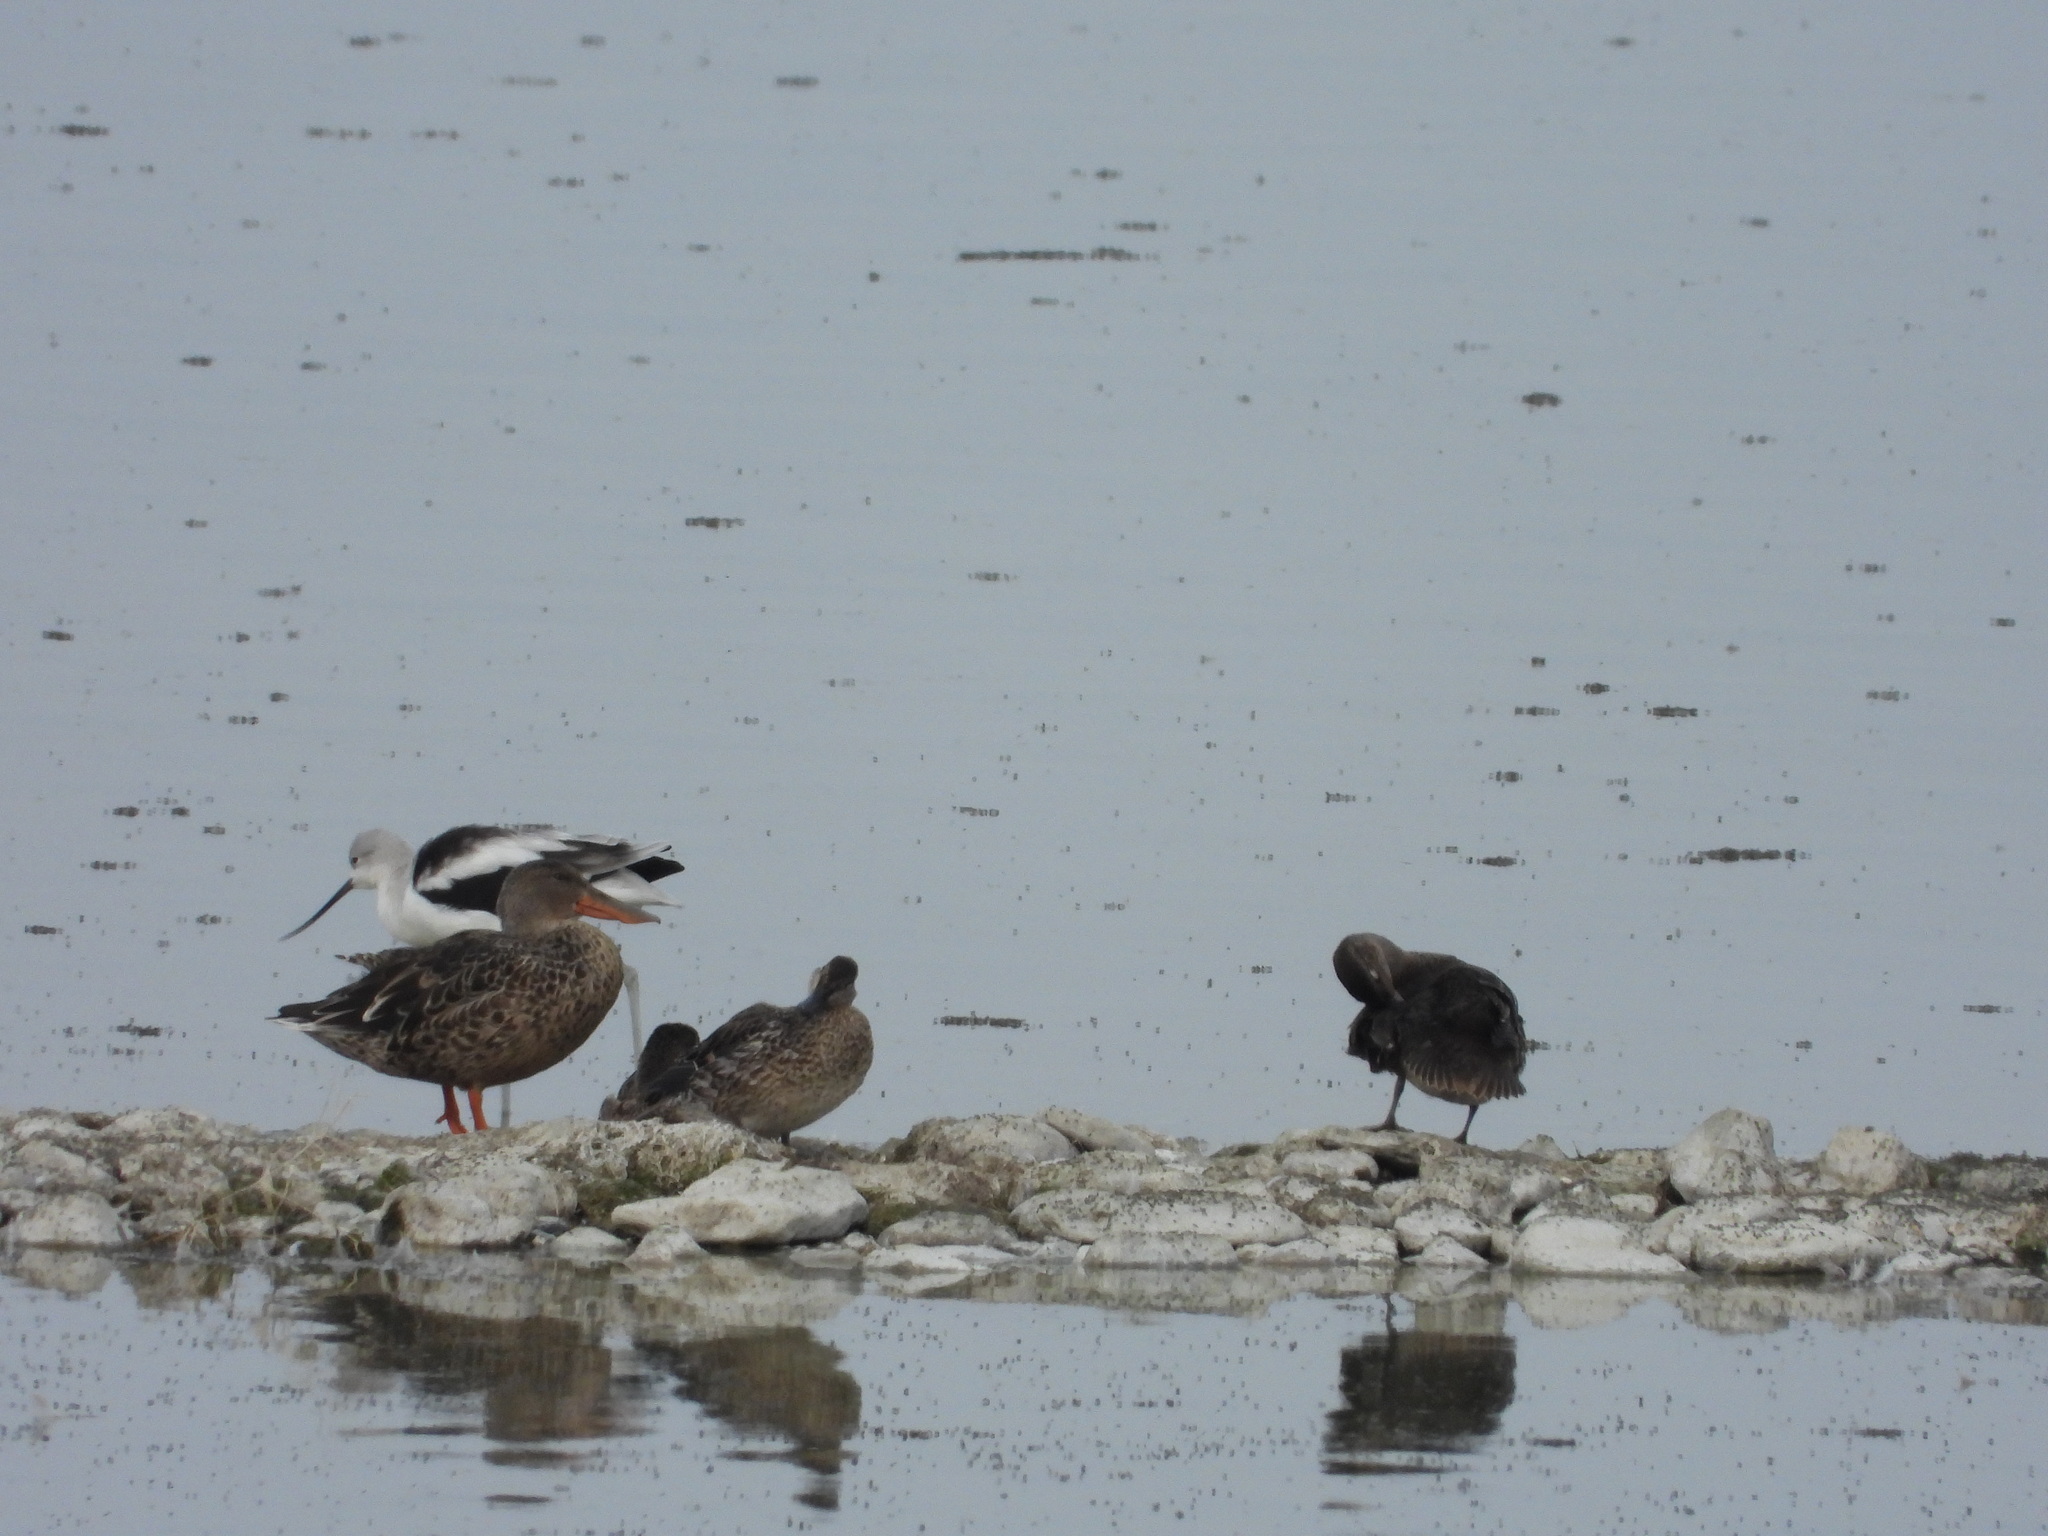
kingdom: Animalia
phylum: Chordata
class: Aves
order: Anseriformes
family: Anatidae
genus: Spatula
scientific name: Spatula clypeata
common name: Northern shoveler
